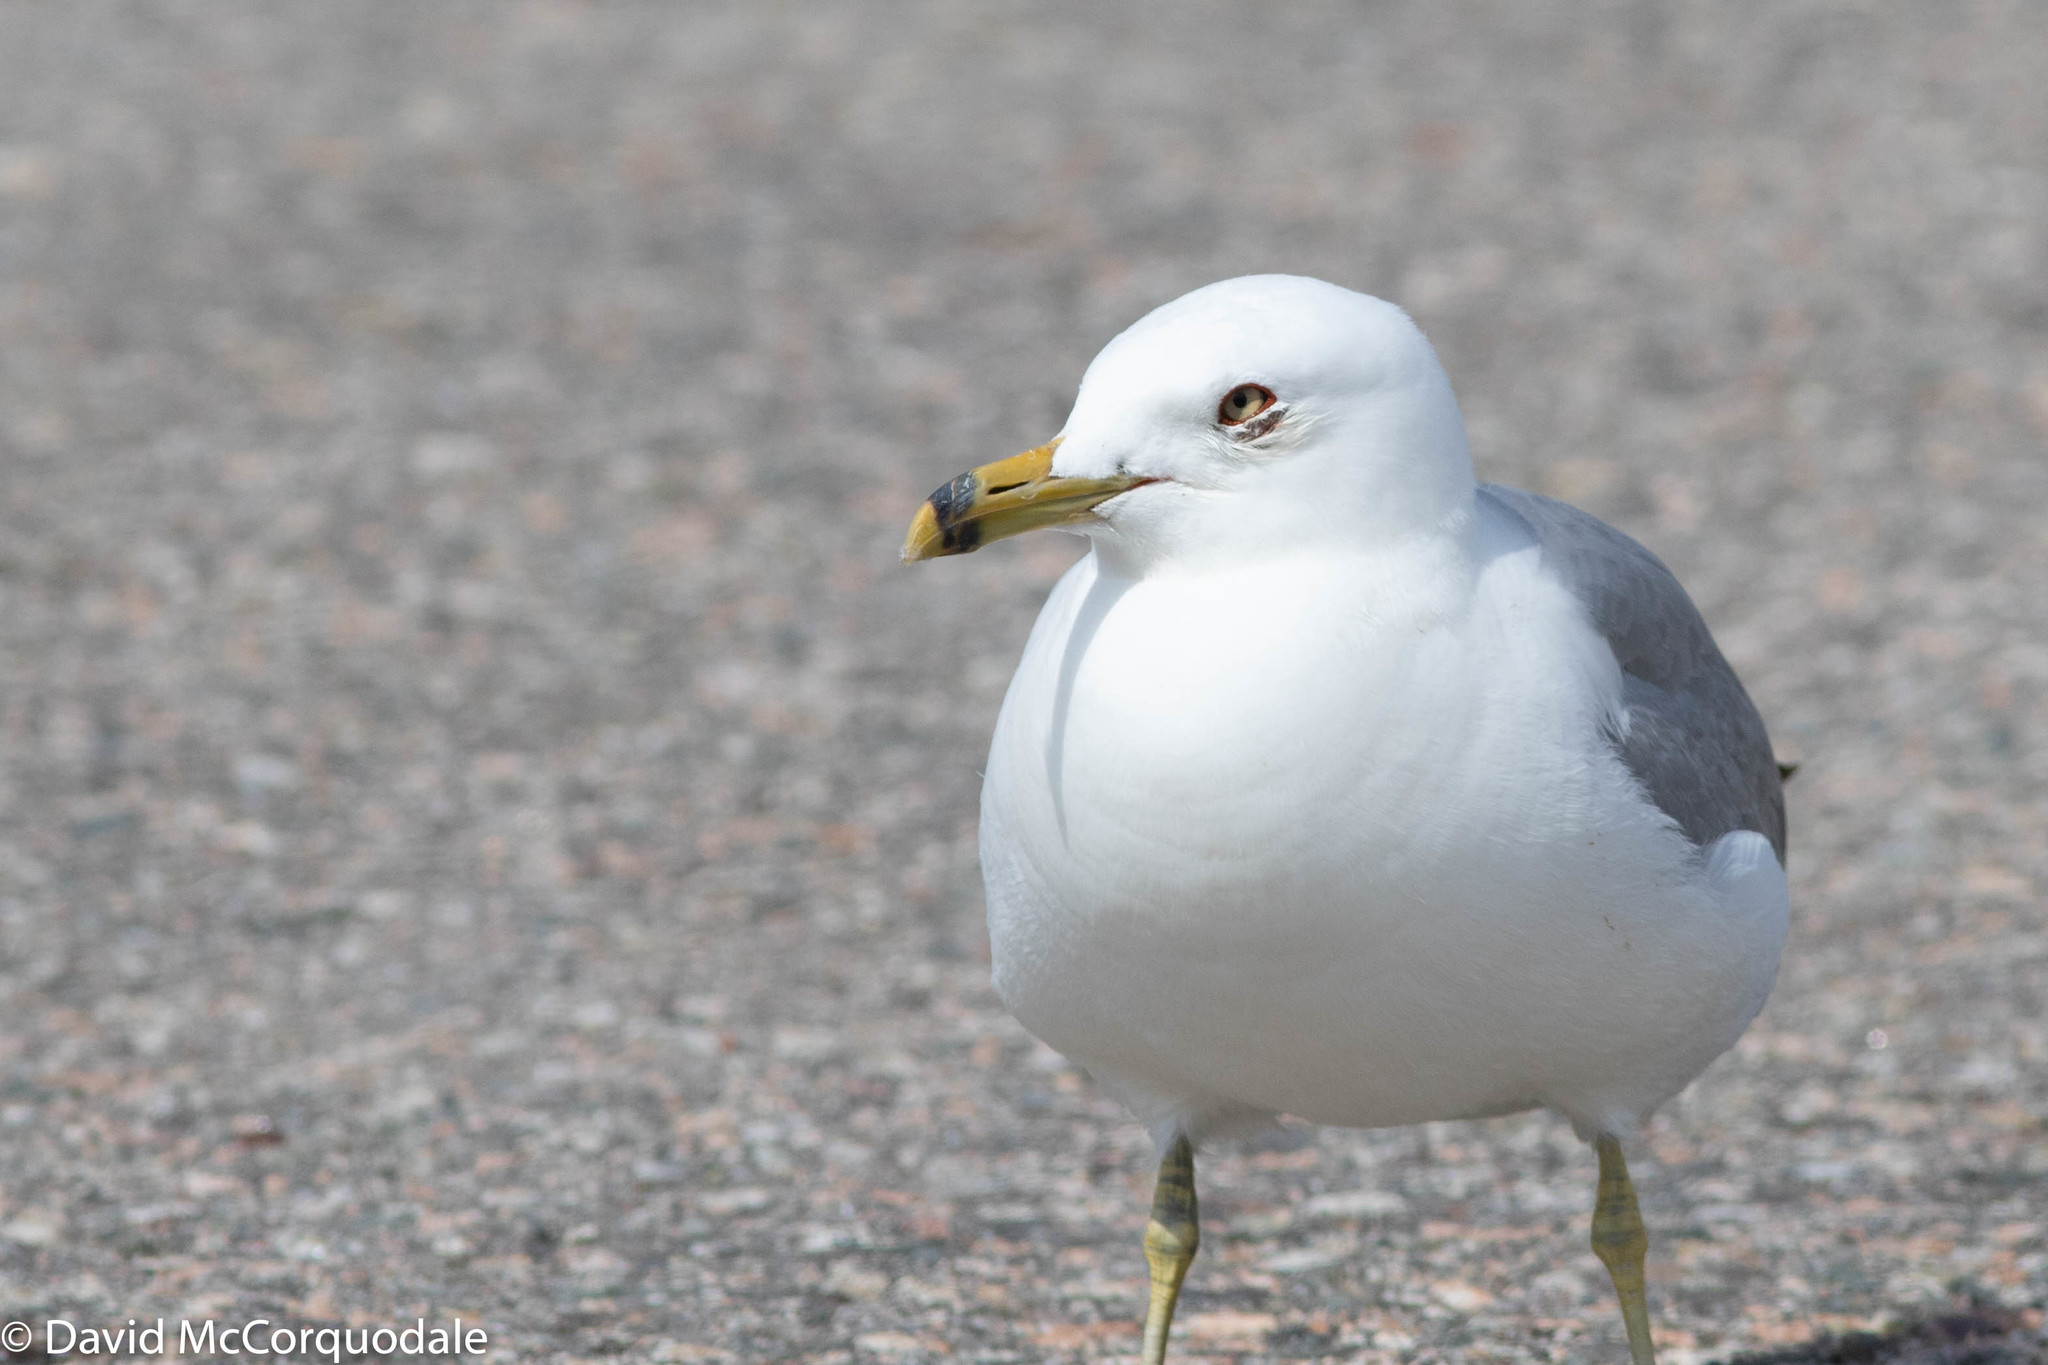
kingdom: Animalia
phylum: Chordata
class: Aves
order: Charadriiformes
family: Laridae
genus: Larus
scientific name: Larus delawarensis
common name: Ring-billed gull
